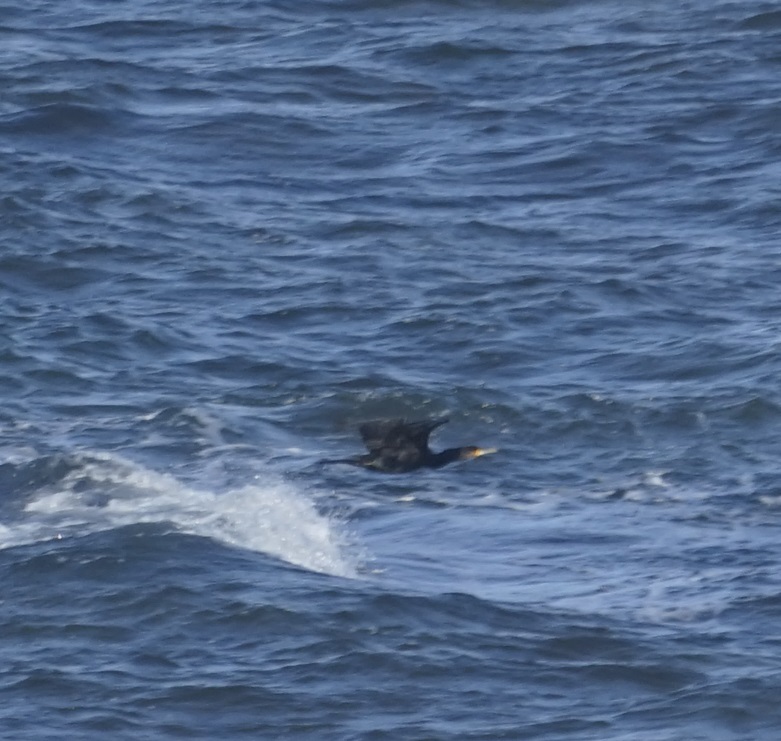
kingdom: Animalia
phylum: Chordata
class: Aves
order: Suliformes
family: Phalacrocoracidae
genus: Phalacrocorax
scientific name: Phalacrocorax carbo
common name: Great cormorant
